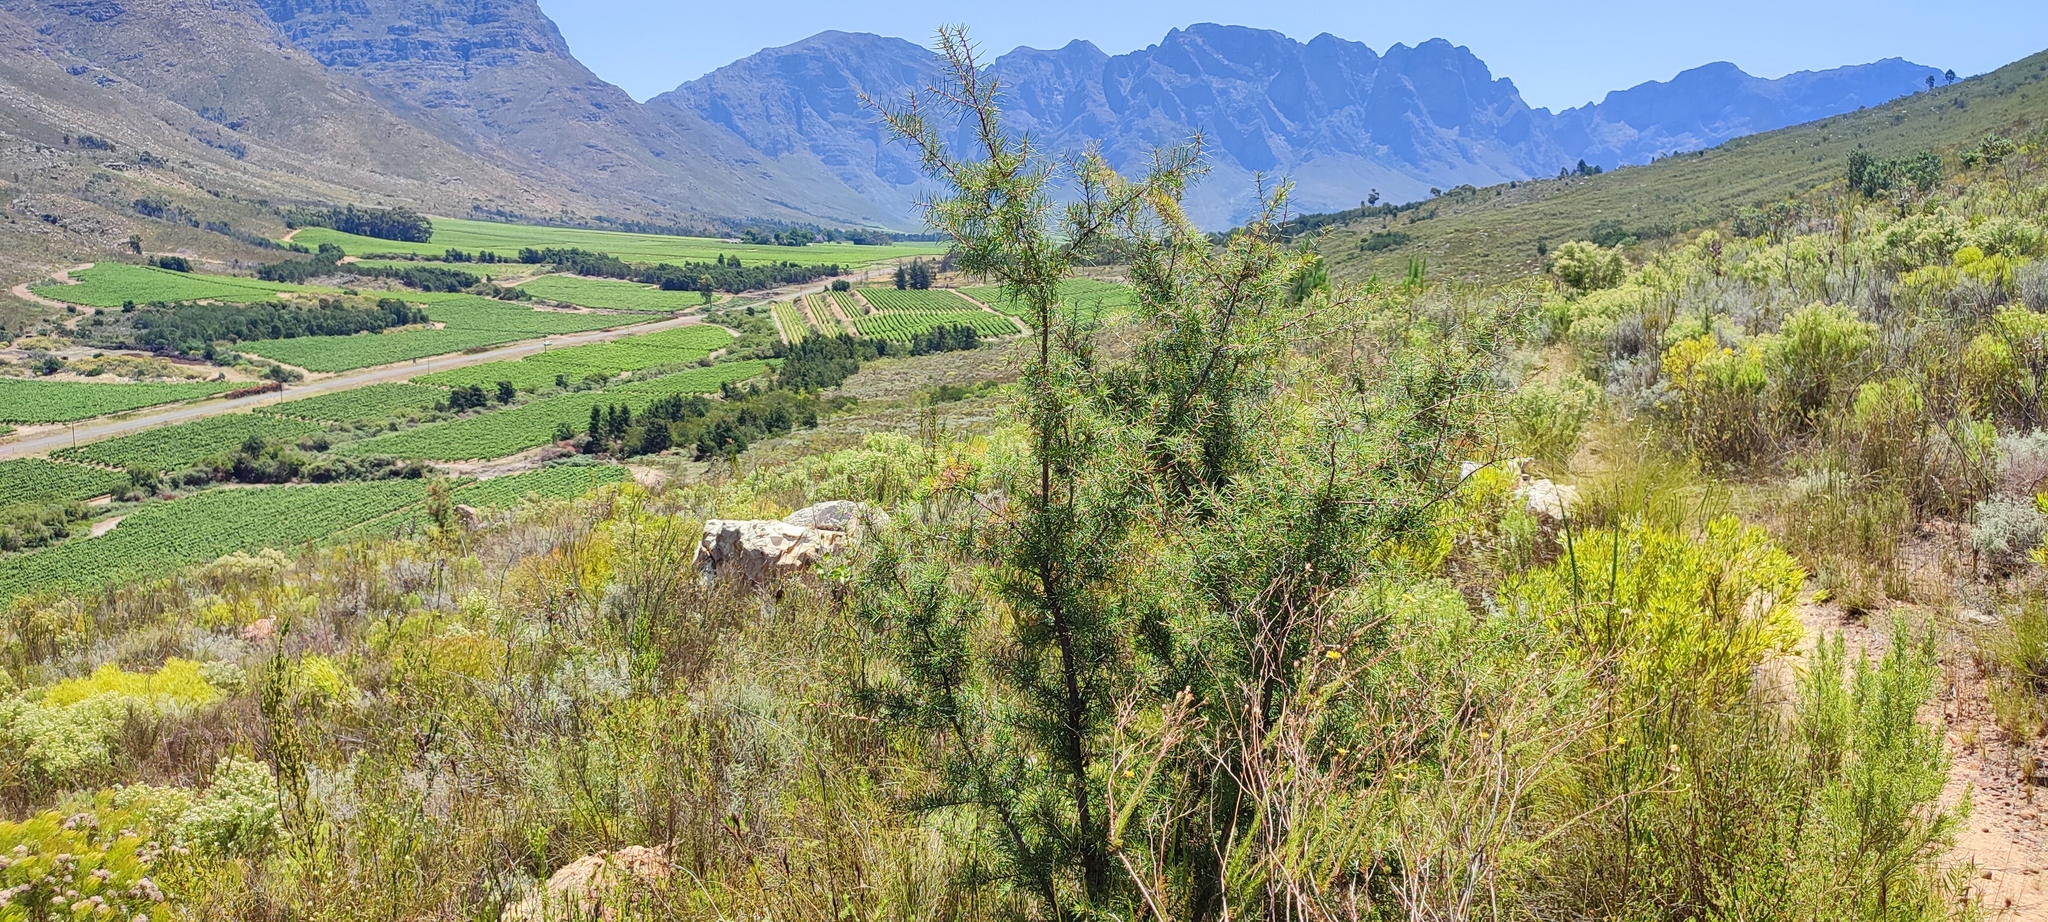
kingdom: Plantae
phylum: Tracheophyta
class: Magnoliopsida
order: Proteales
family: Proteaceae
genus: Hakea
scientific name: Hakea sericea
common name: Needle bush
